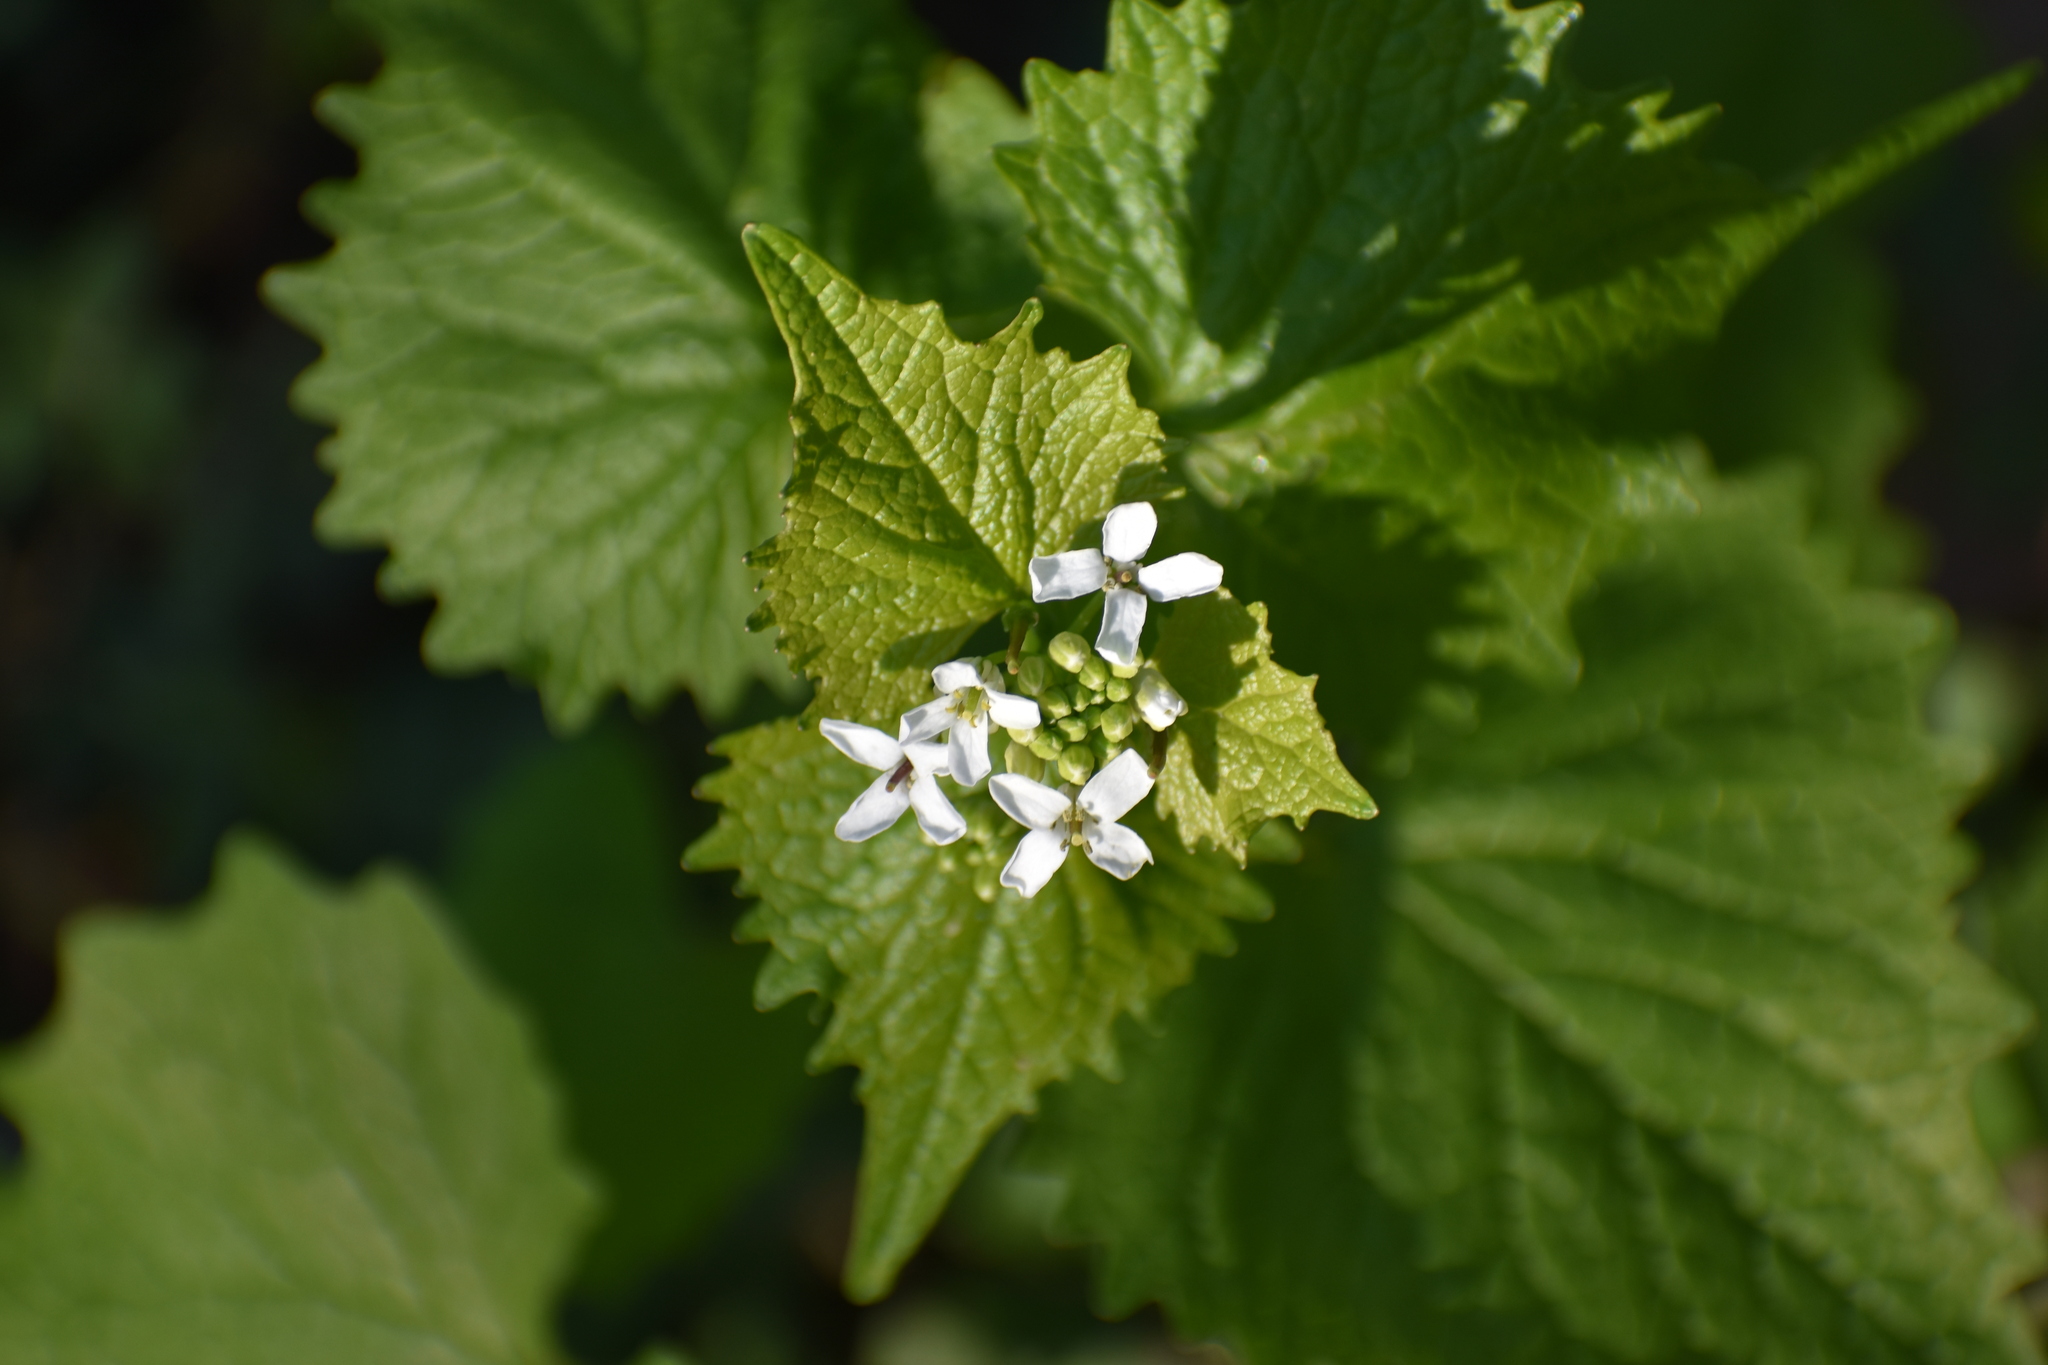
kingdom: Plantae
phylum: Tracheophyta
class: Magnoliopsida
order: Brassicales
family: Brassicaceae
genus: Alliaria
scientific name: Alliaria petiolata
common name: Garlic mustard
